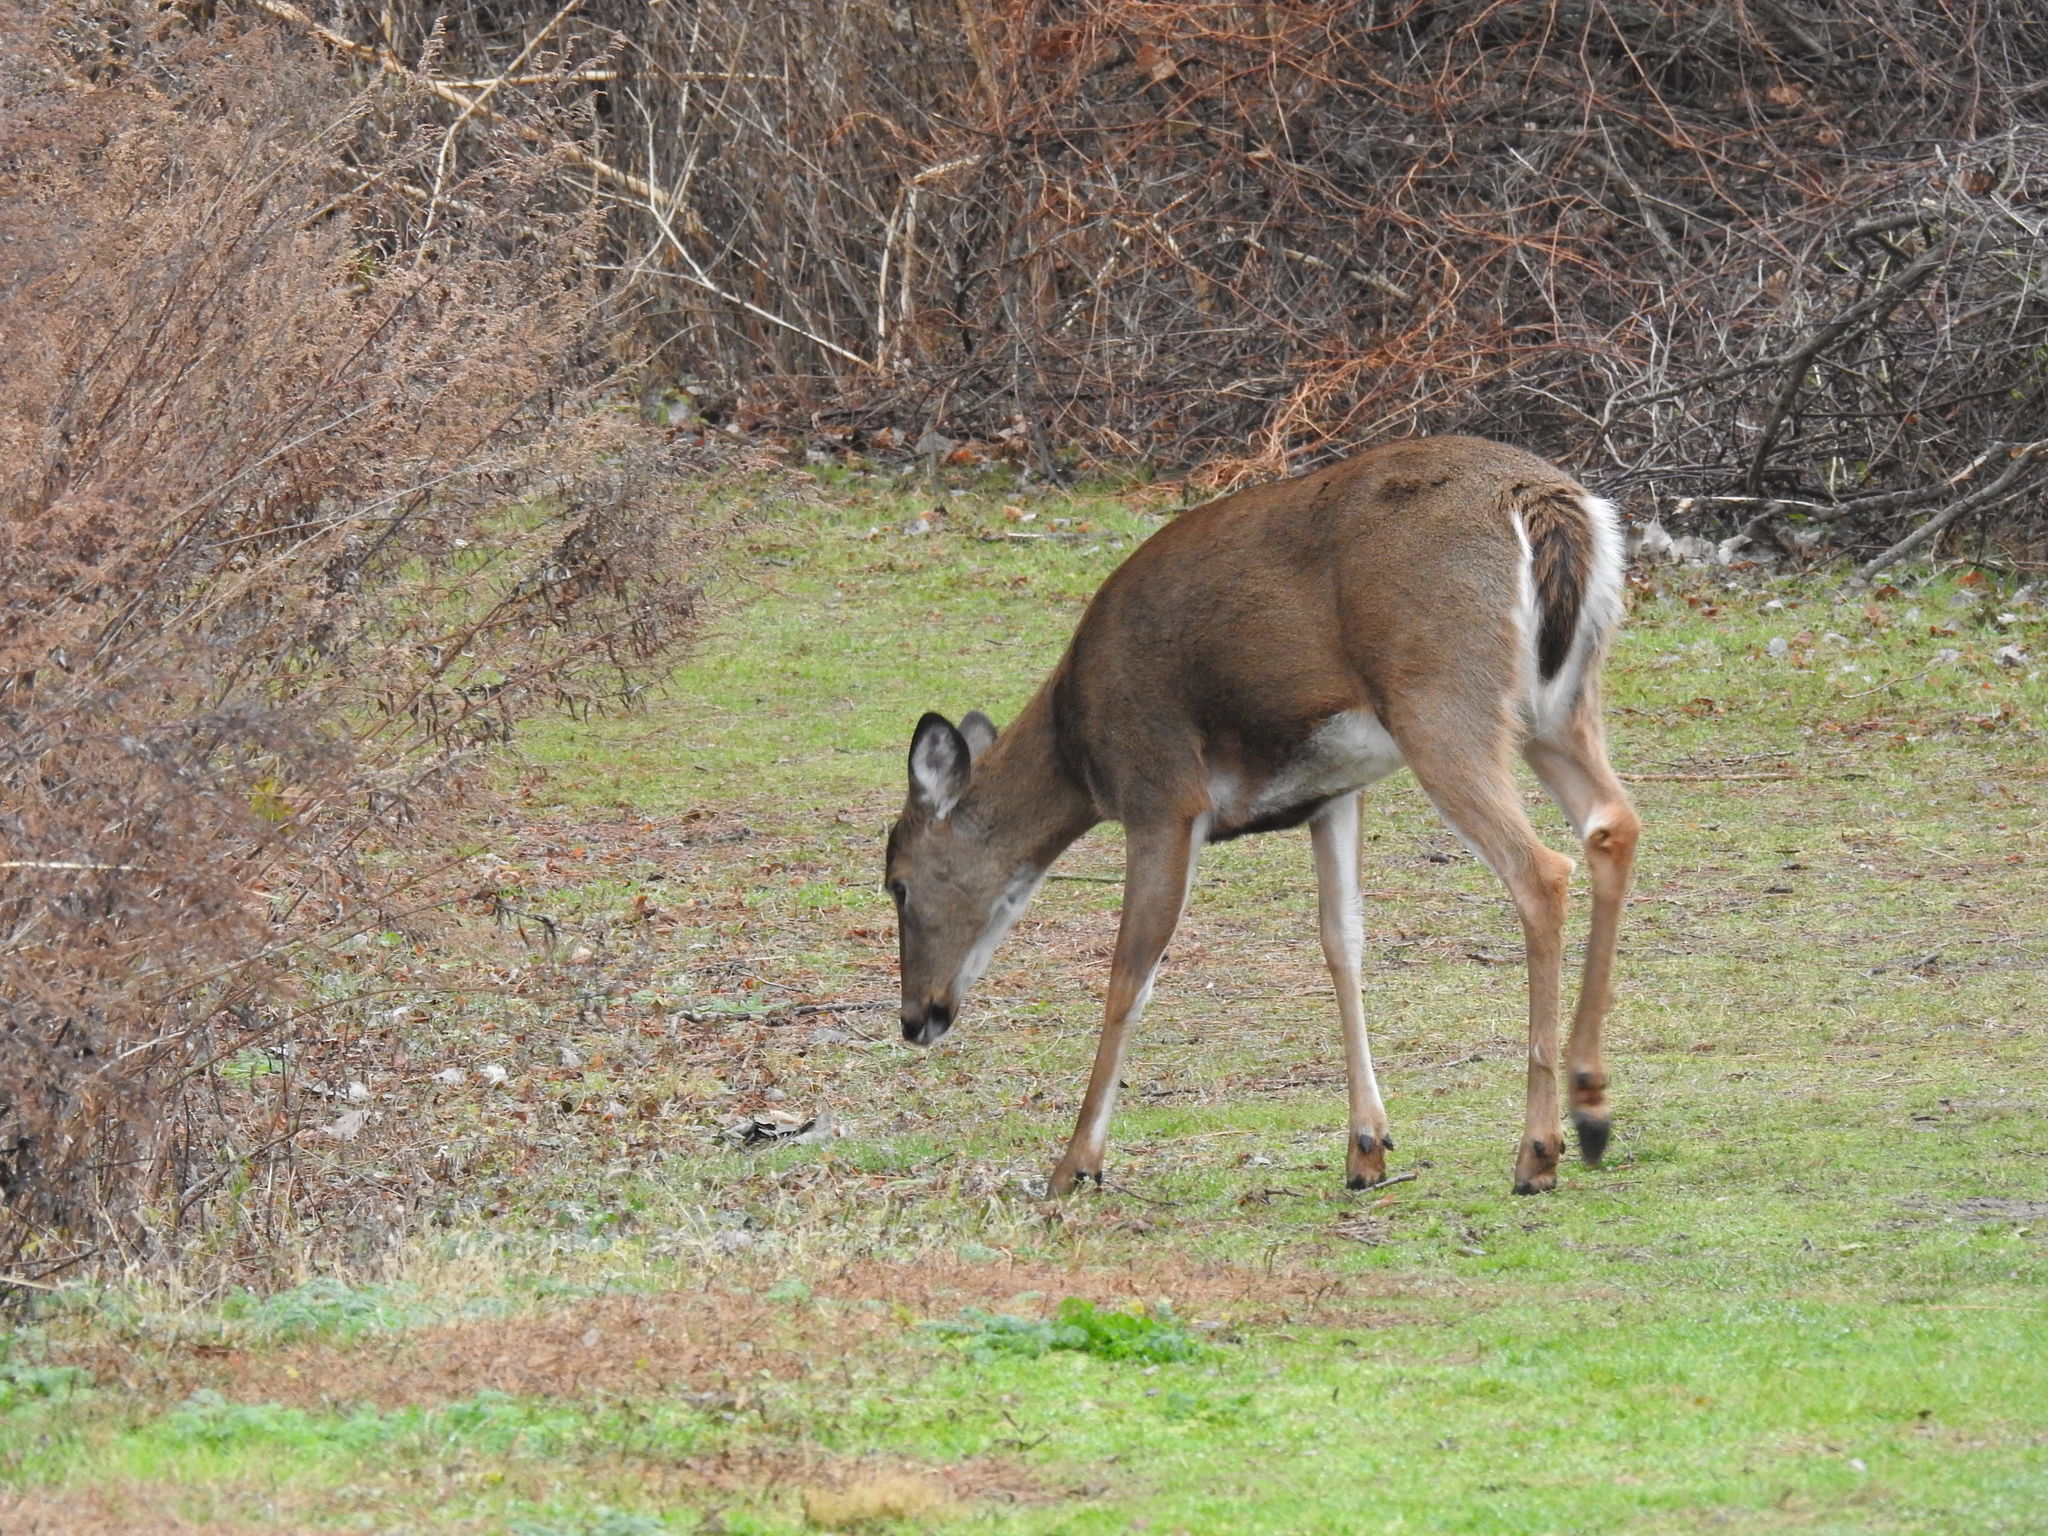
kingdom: Animalia
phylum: Chordata
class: Mammalia
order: Artiodactyla
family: Cervidae
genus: Odocoileus
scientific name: Odocoileus virginianus
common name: White-tailed deer
